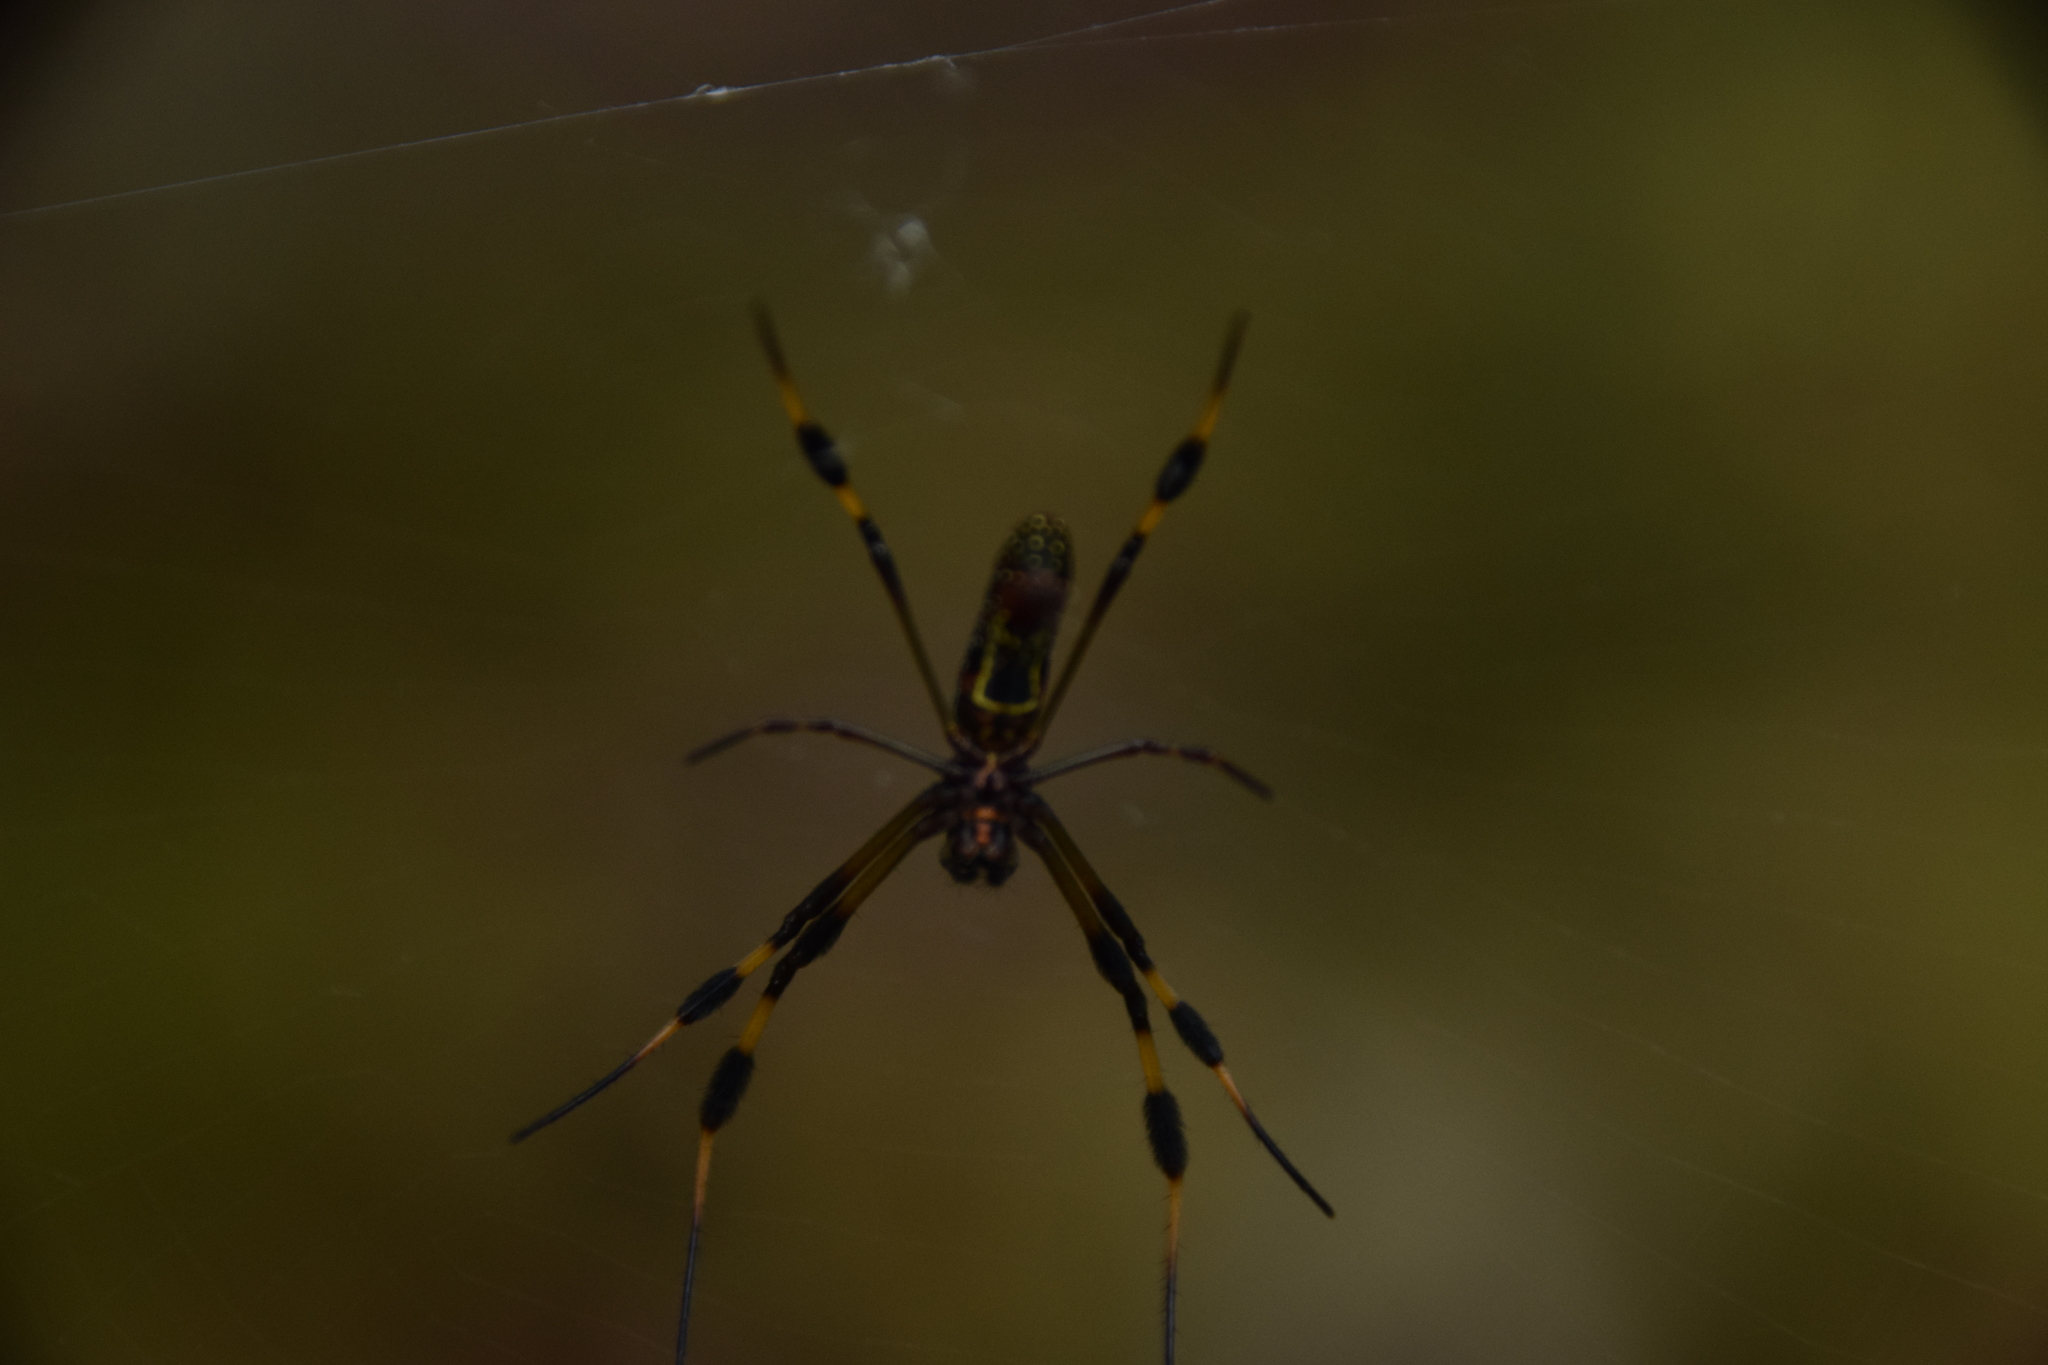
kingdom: Animalia
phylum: Arthropoda
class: Arachnida
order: Araneae
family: Araneidae
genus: Trichonephila
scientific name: Trichonephila clavipes
